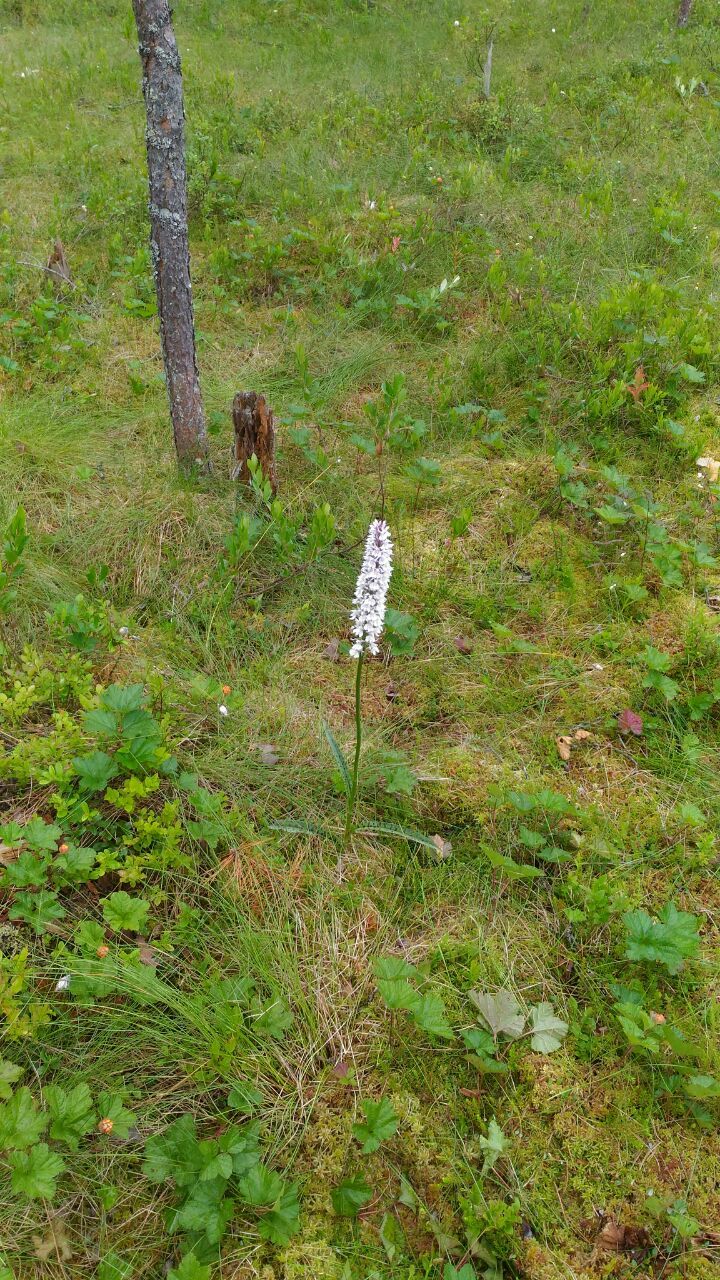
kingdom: Plantae
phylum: Tracheophyta
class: Liliopsida
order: Asparagales
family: Orchidaceae
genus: Dactylorhiza
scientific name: Dactylorhiza maculata
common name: Heath spotted-orchid
